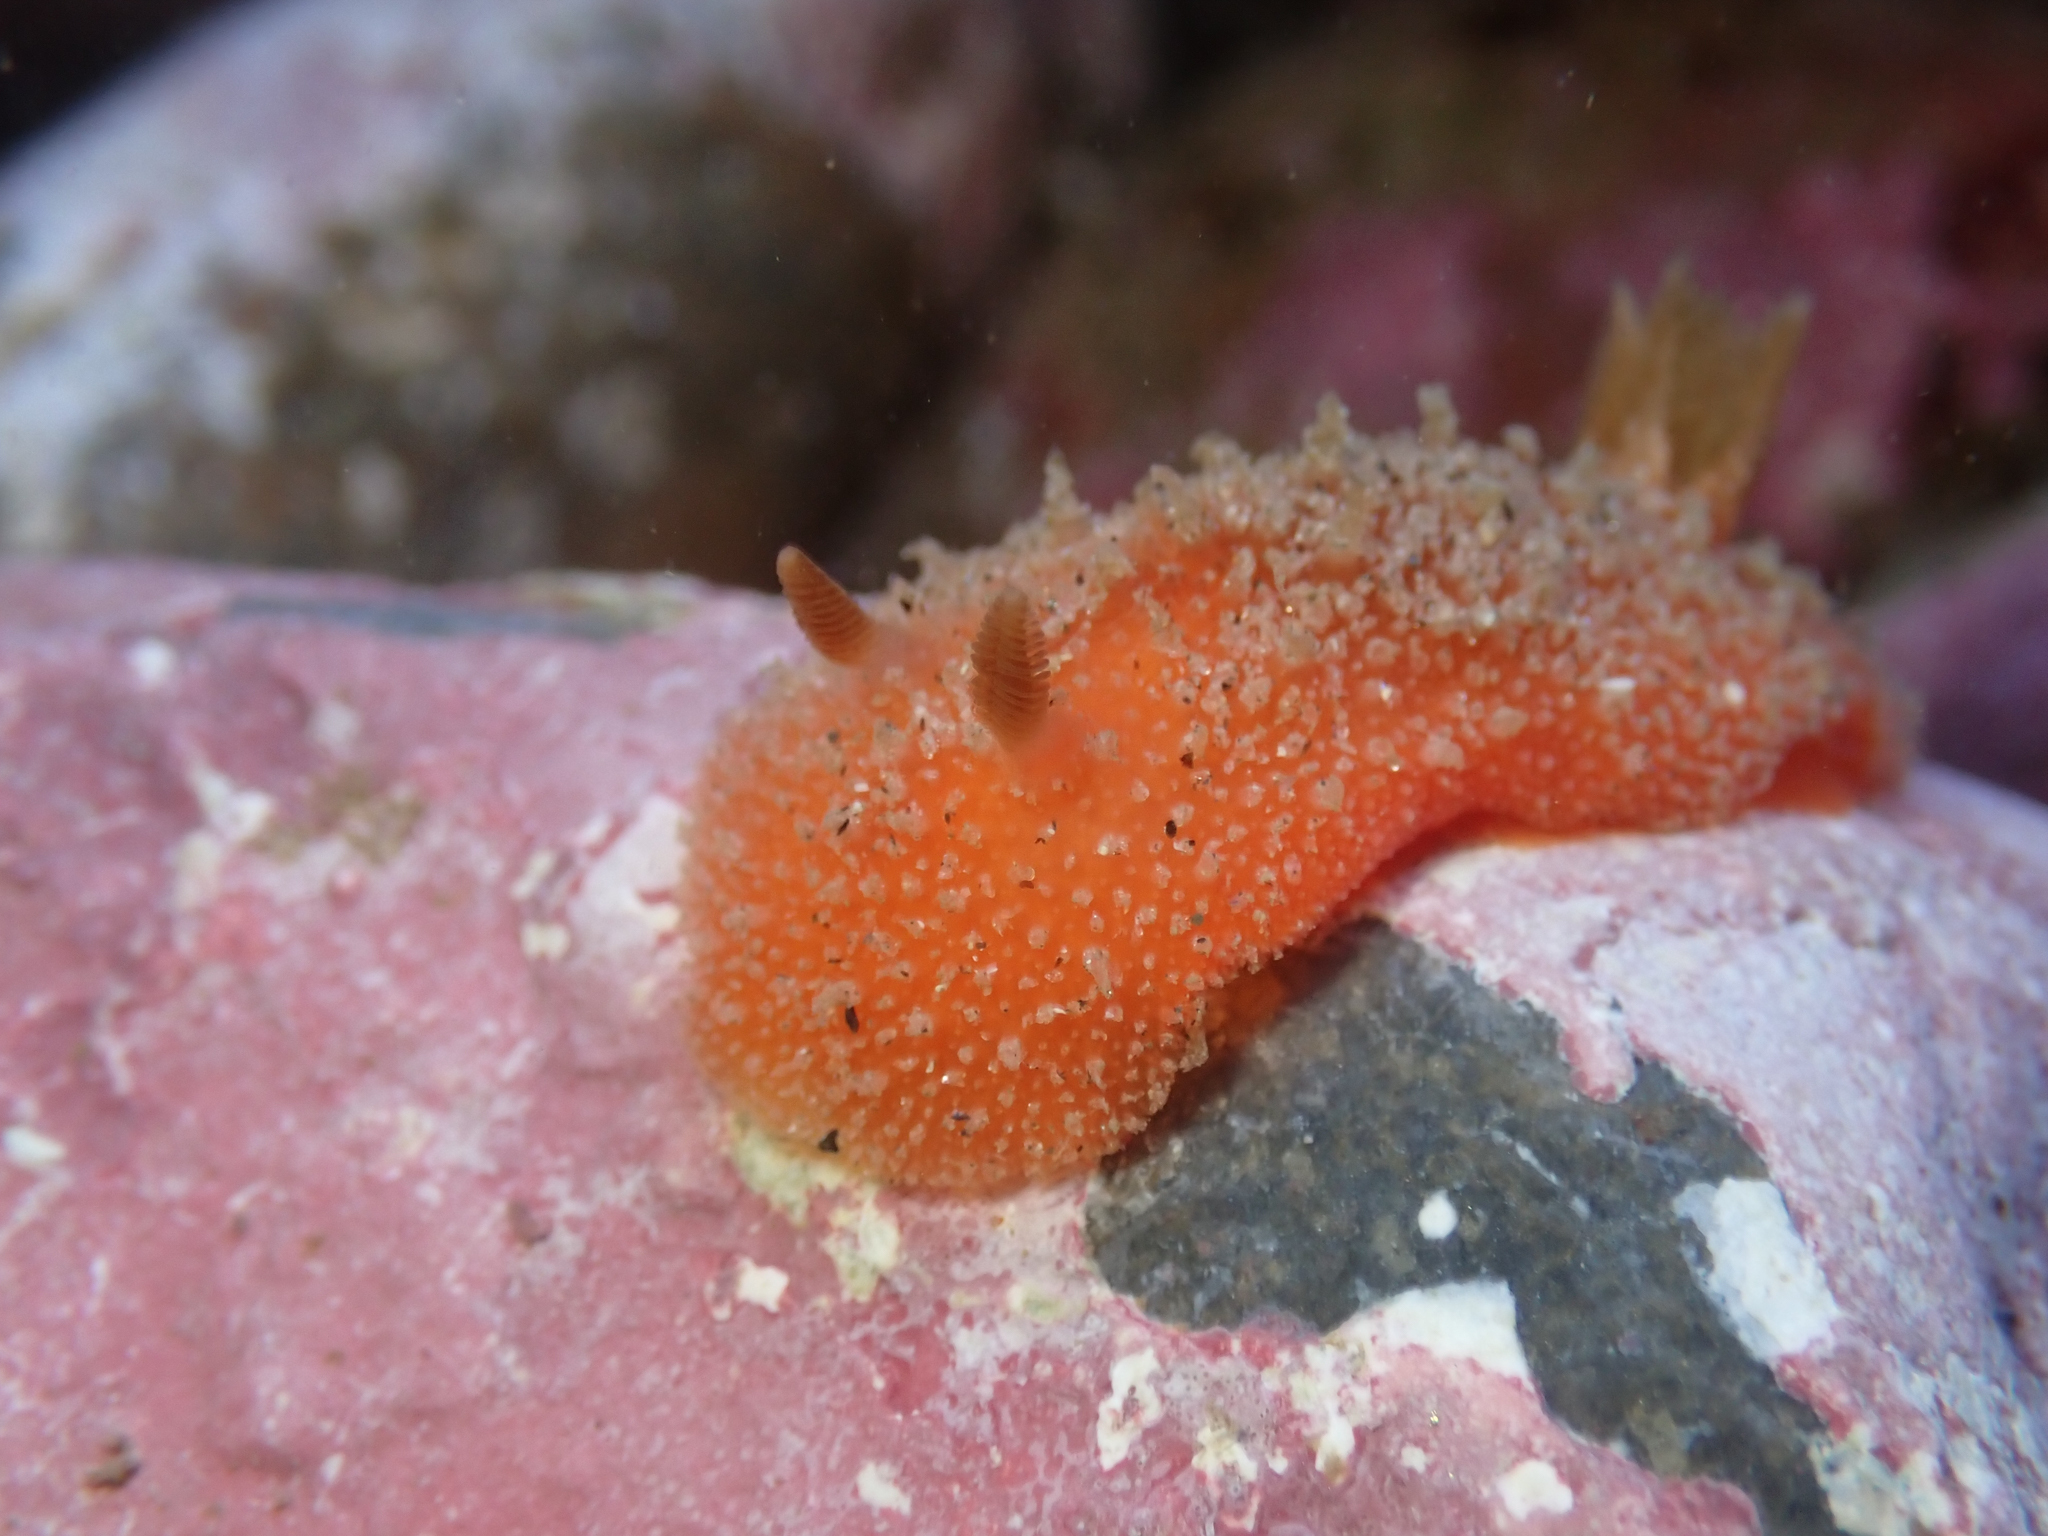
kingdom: Animalia
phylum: Mollusca
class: Gastropoda
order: Nudibranchia
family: Discodorididae
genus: Thordisa
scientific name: Thordisa bimaculata
